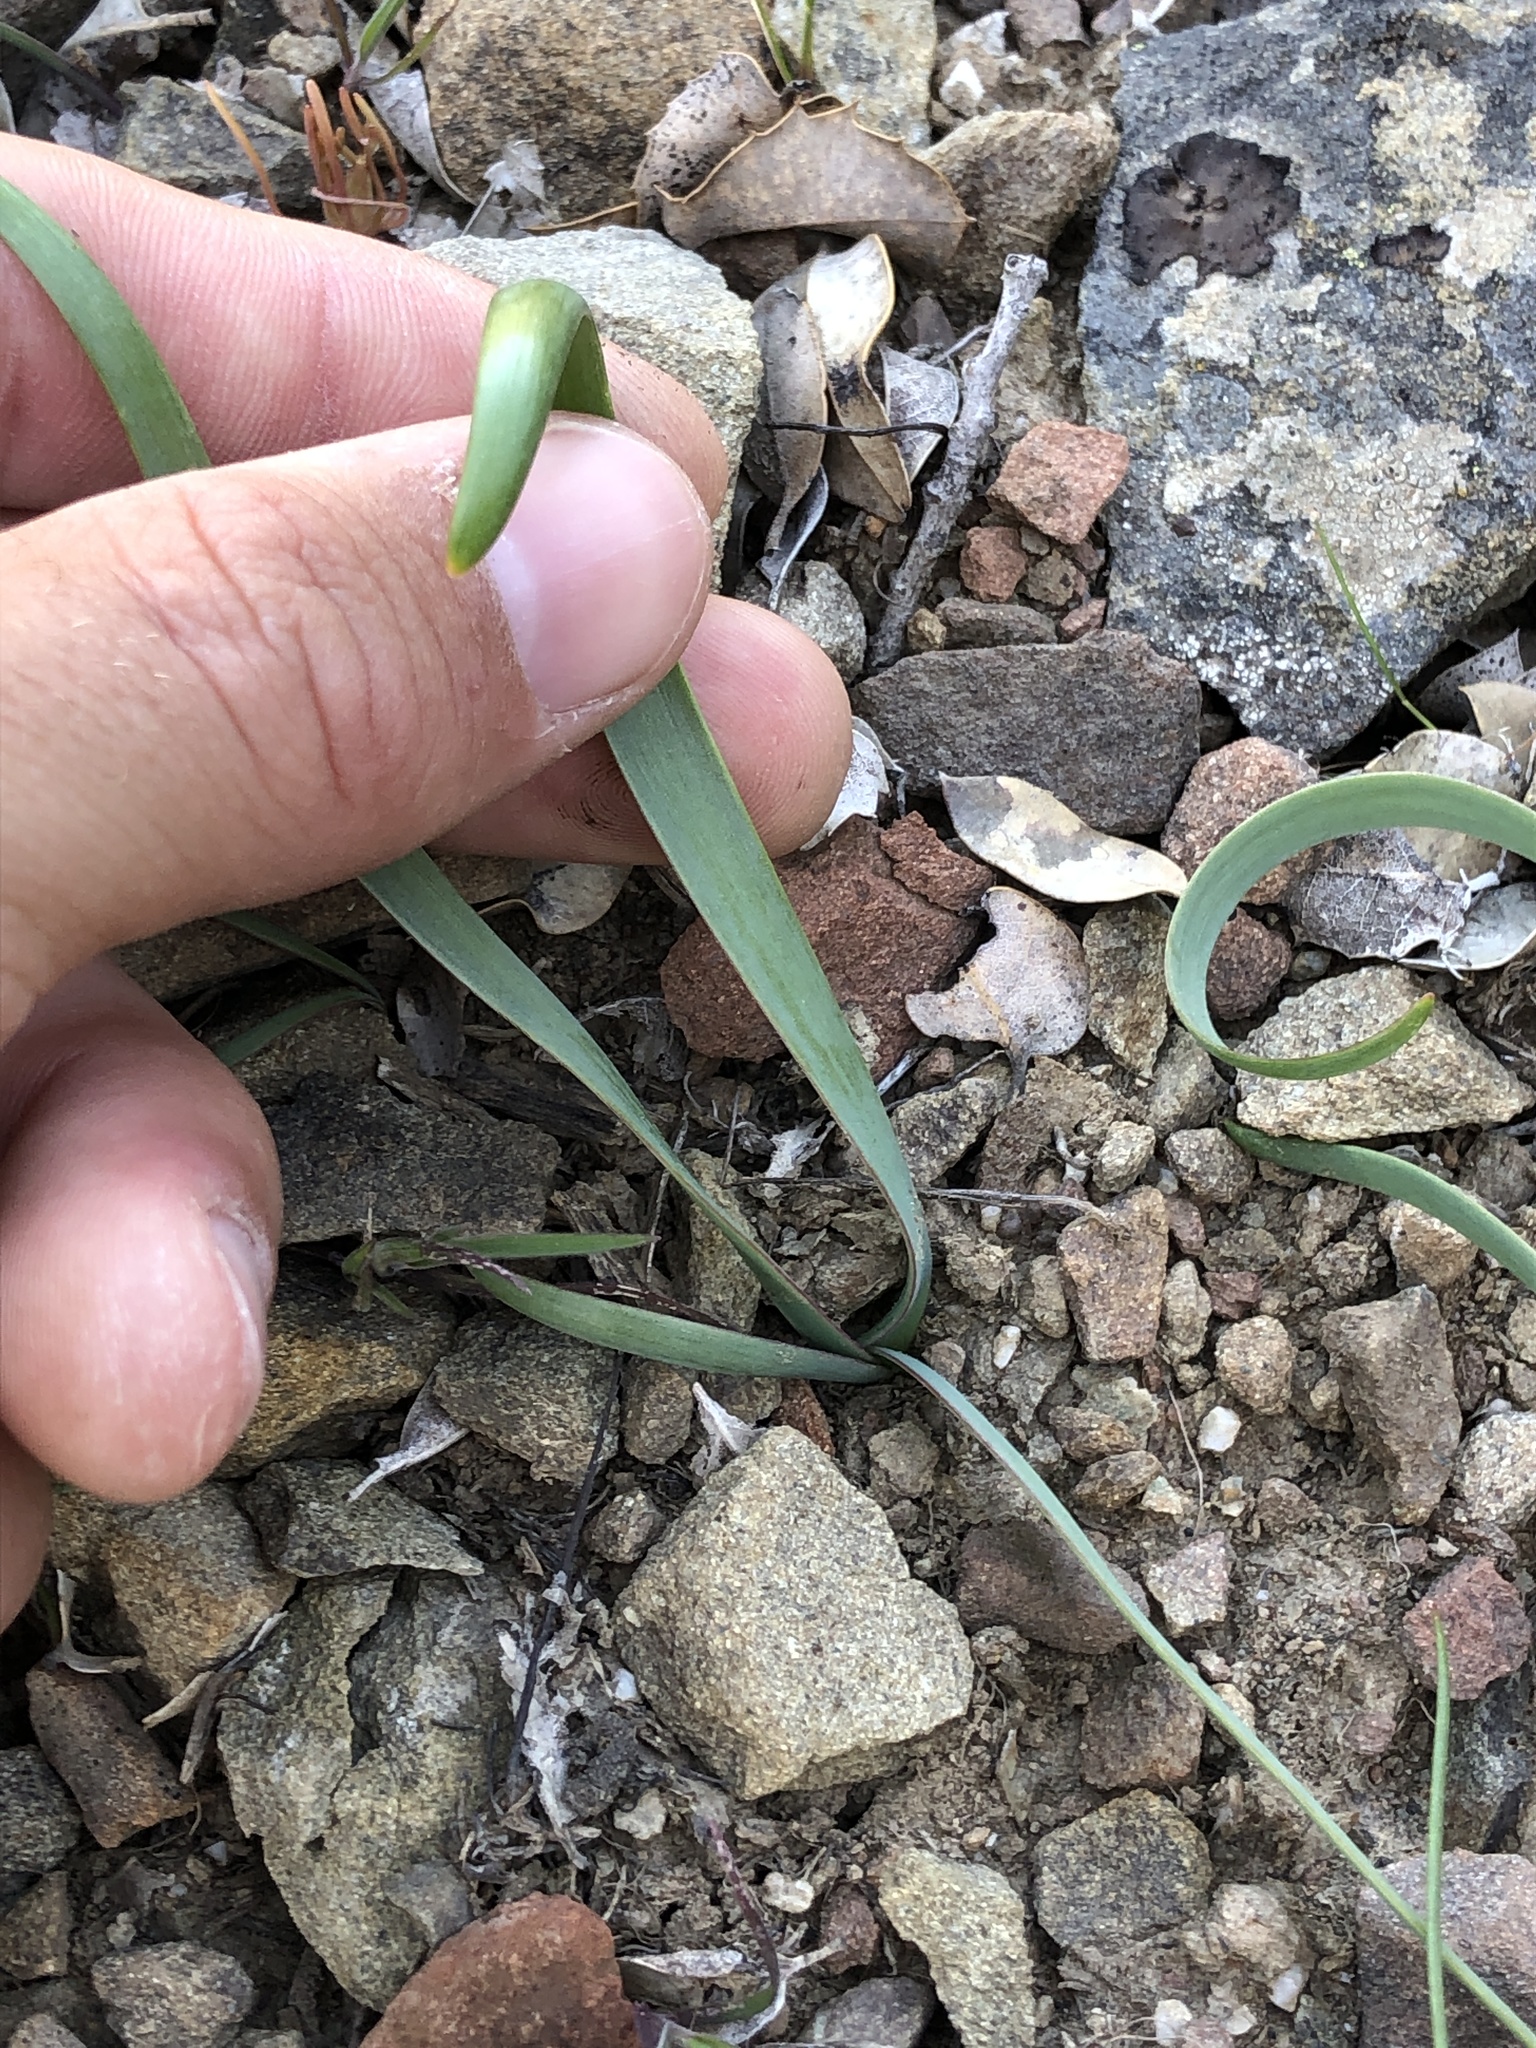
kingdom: Plantae
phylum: Tracheophyta
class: Liliopsida
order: Asparagales
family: Amaryllidaceae
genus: Allium
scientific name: Allium falcifolium
